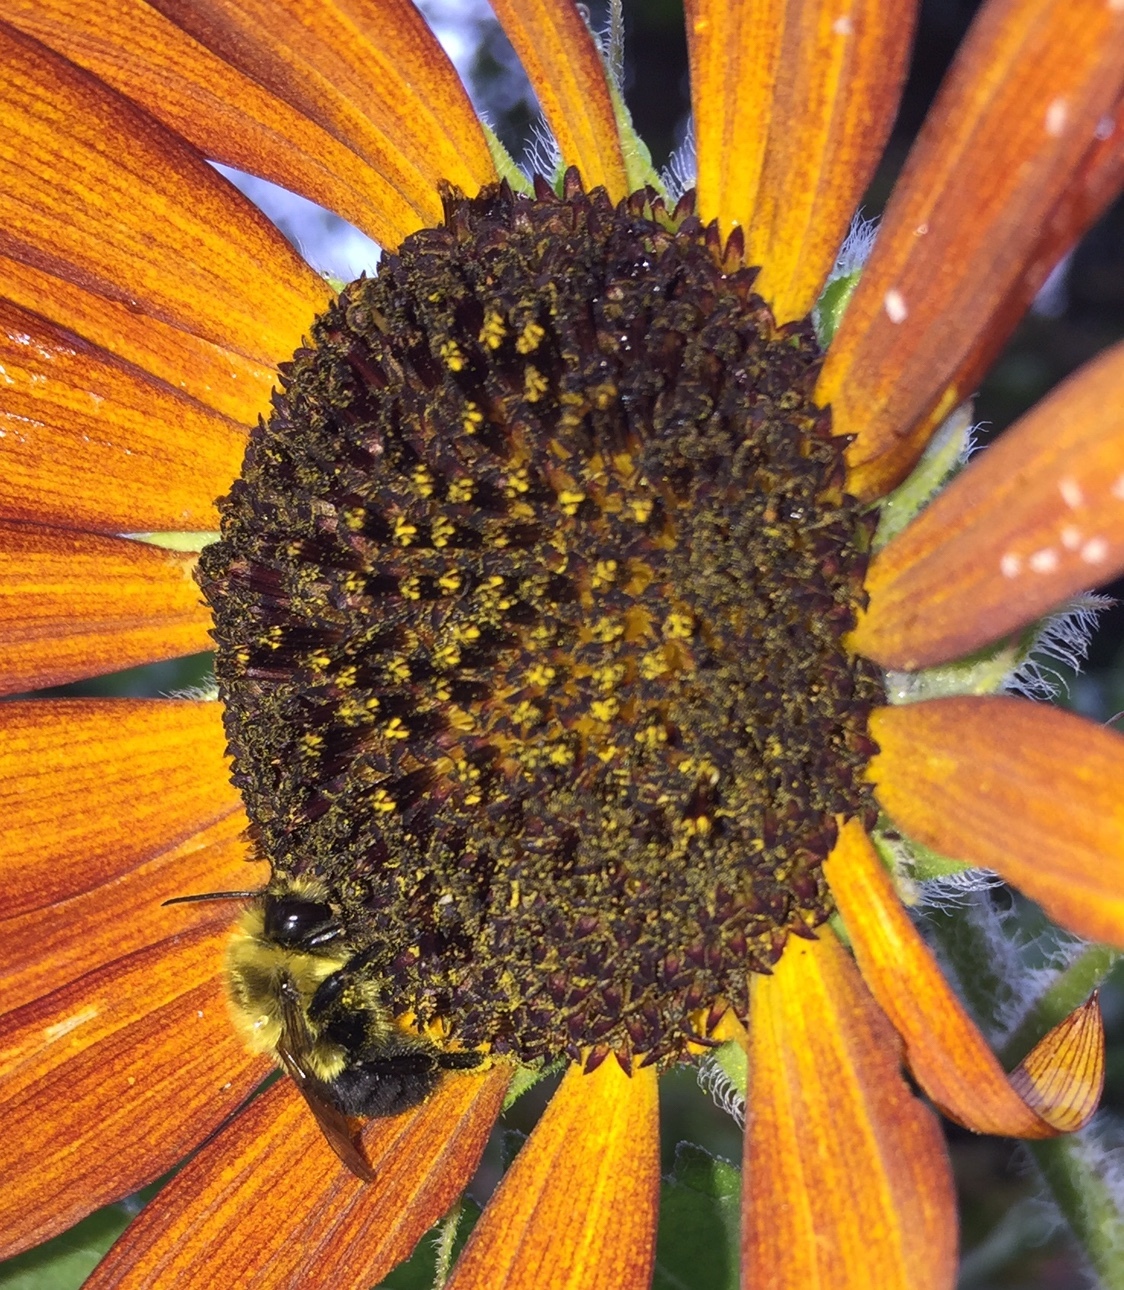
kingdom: Animalia
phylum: Arthropoda
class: Insecta
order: Hymenoptera
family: Apidae
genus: Bombus
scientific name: Bombus impatiens
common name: Common eastern bumble bee
